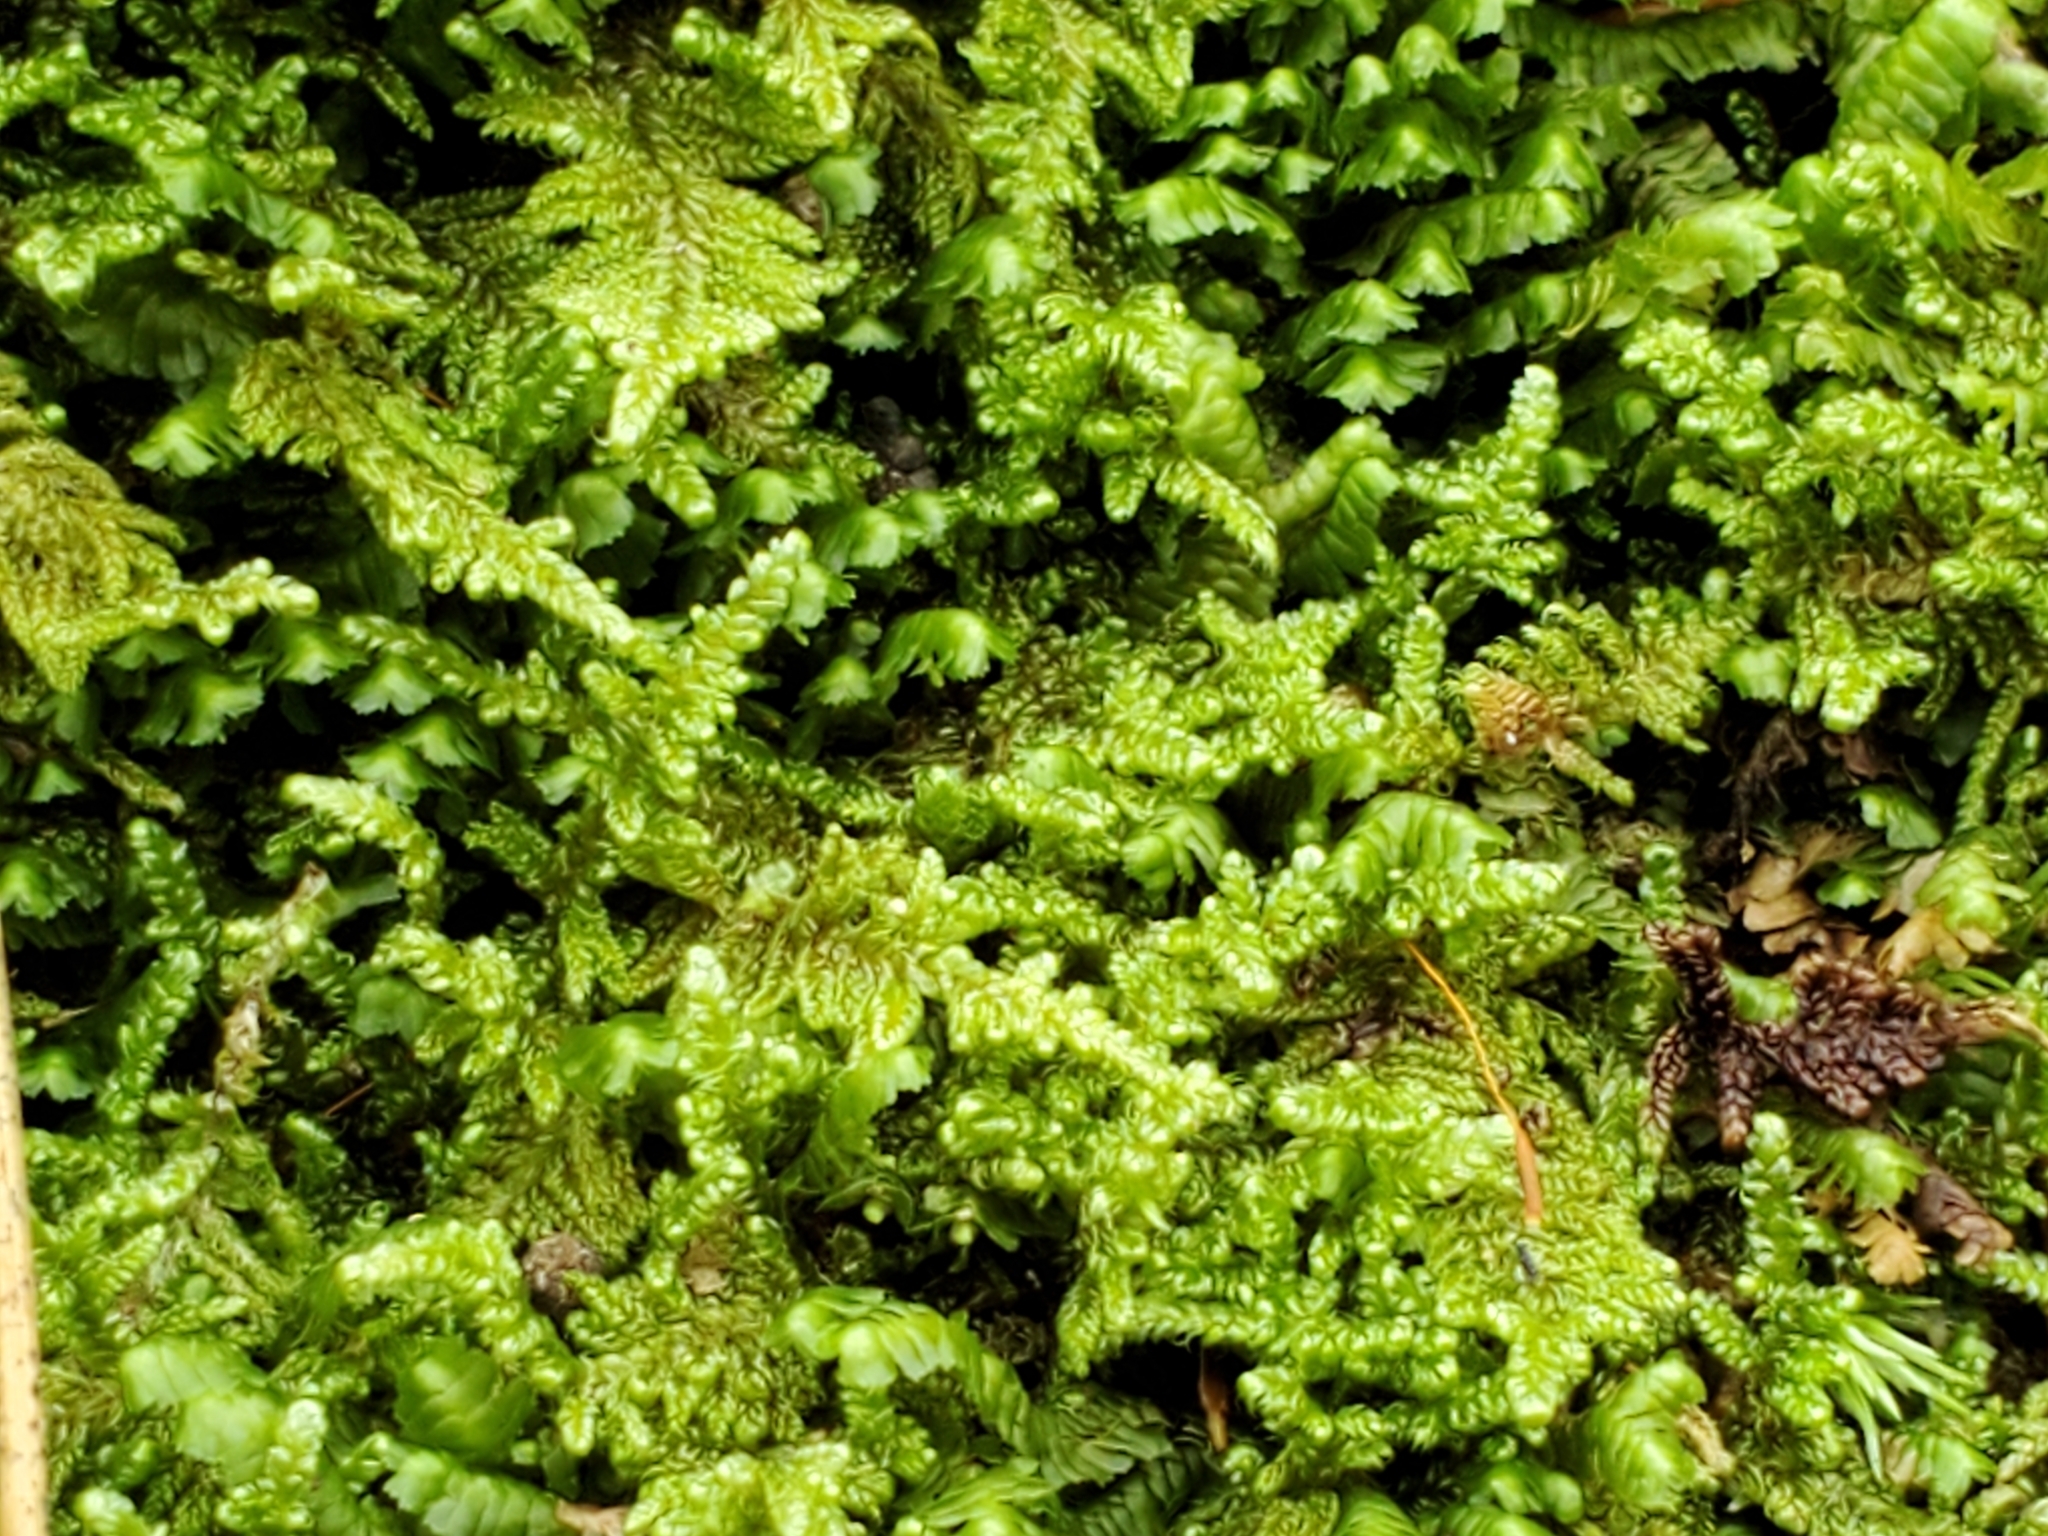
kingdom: Plantae
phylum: Bryophyta
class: Bryopsida
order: Hypnales
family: Callicladiaceae
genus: Callicladium
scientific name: Callicladium imponens
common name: Brocade moss
